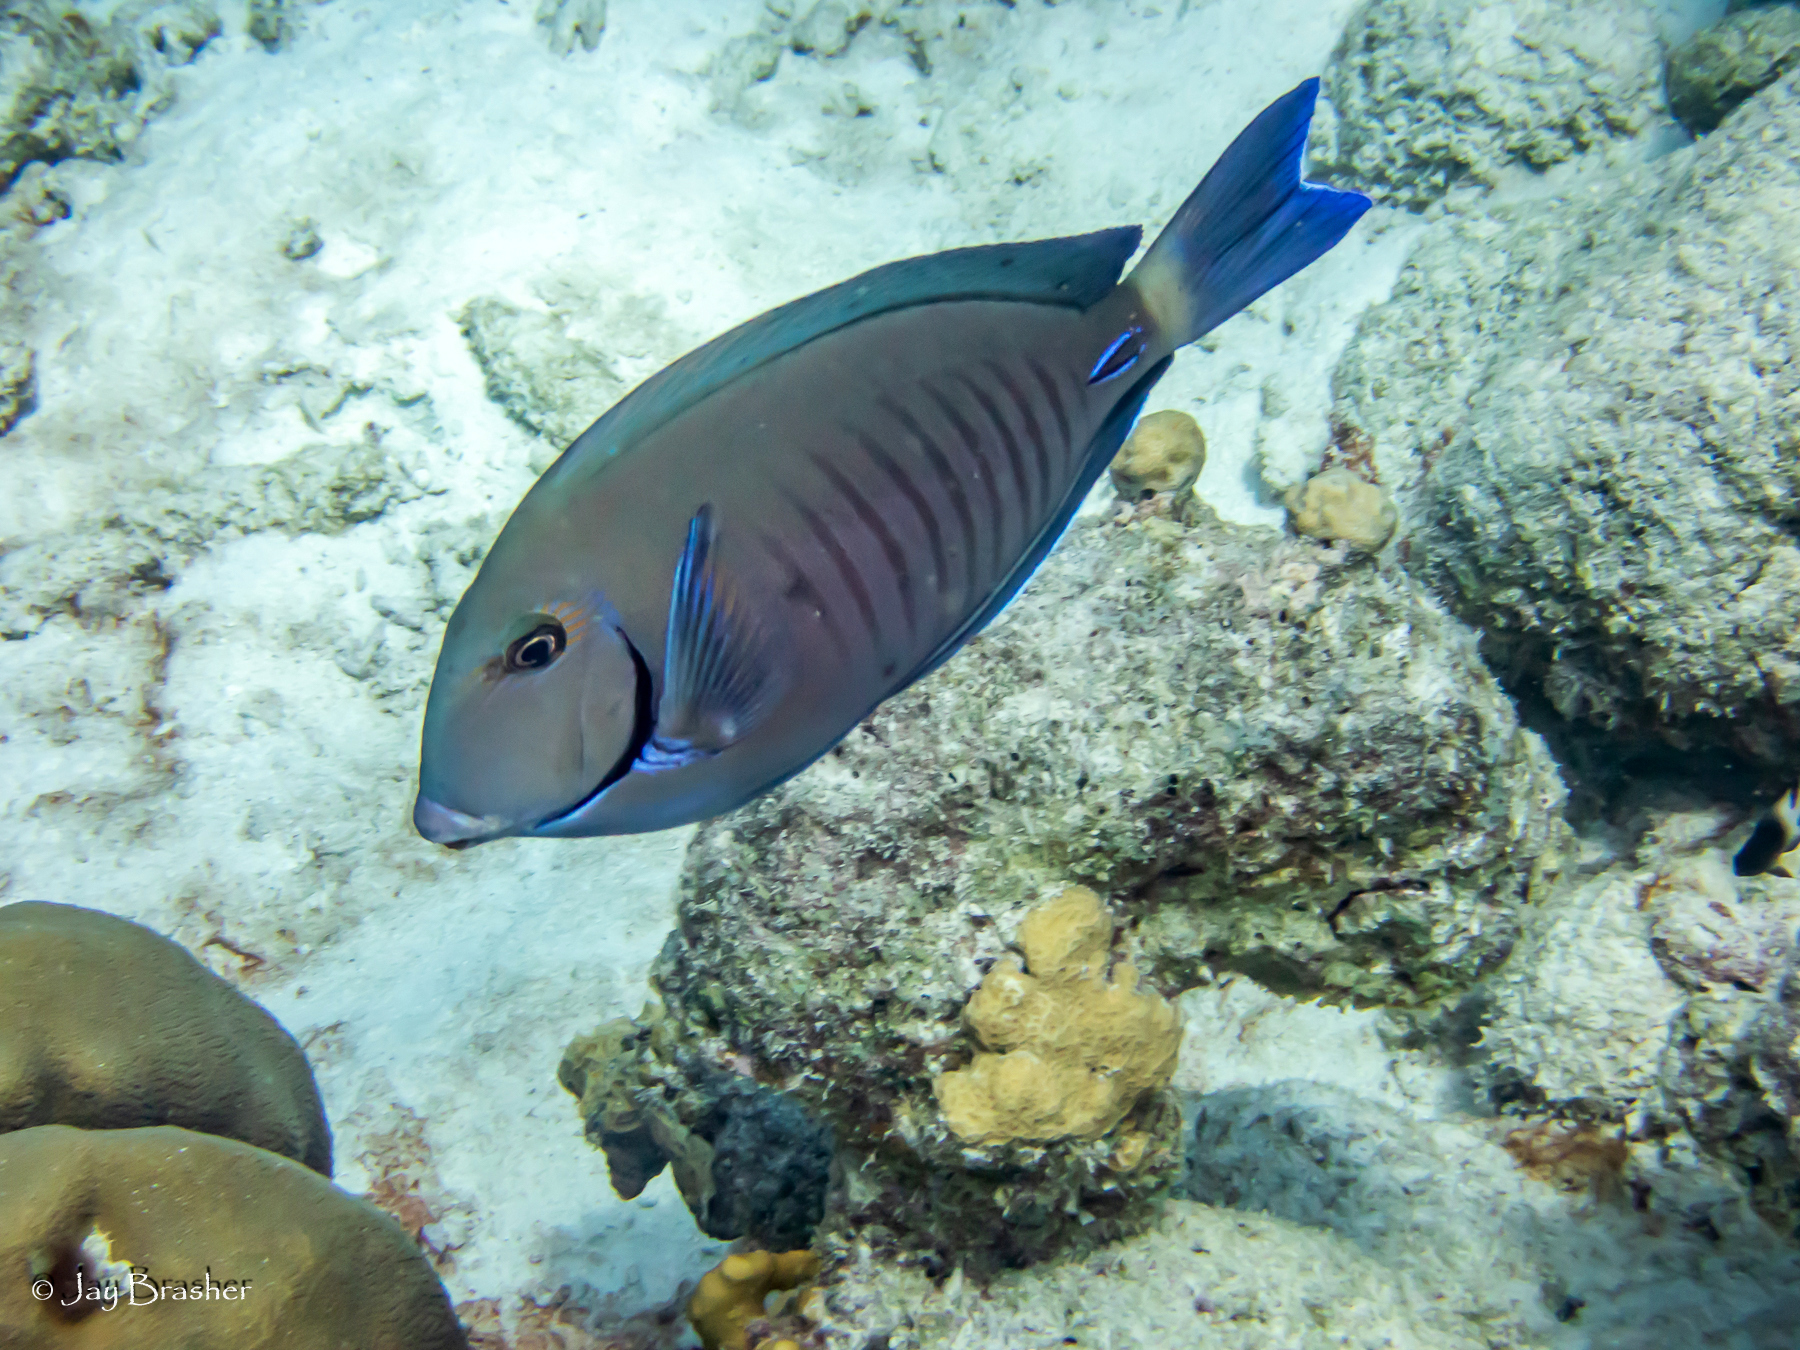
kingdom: Animalia
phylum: Chordata
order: Perciformes
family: Acanthuridae
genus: Acanthurus
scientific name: Acanthurus chirurgus
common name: Doctorfish
